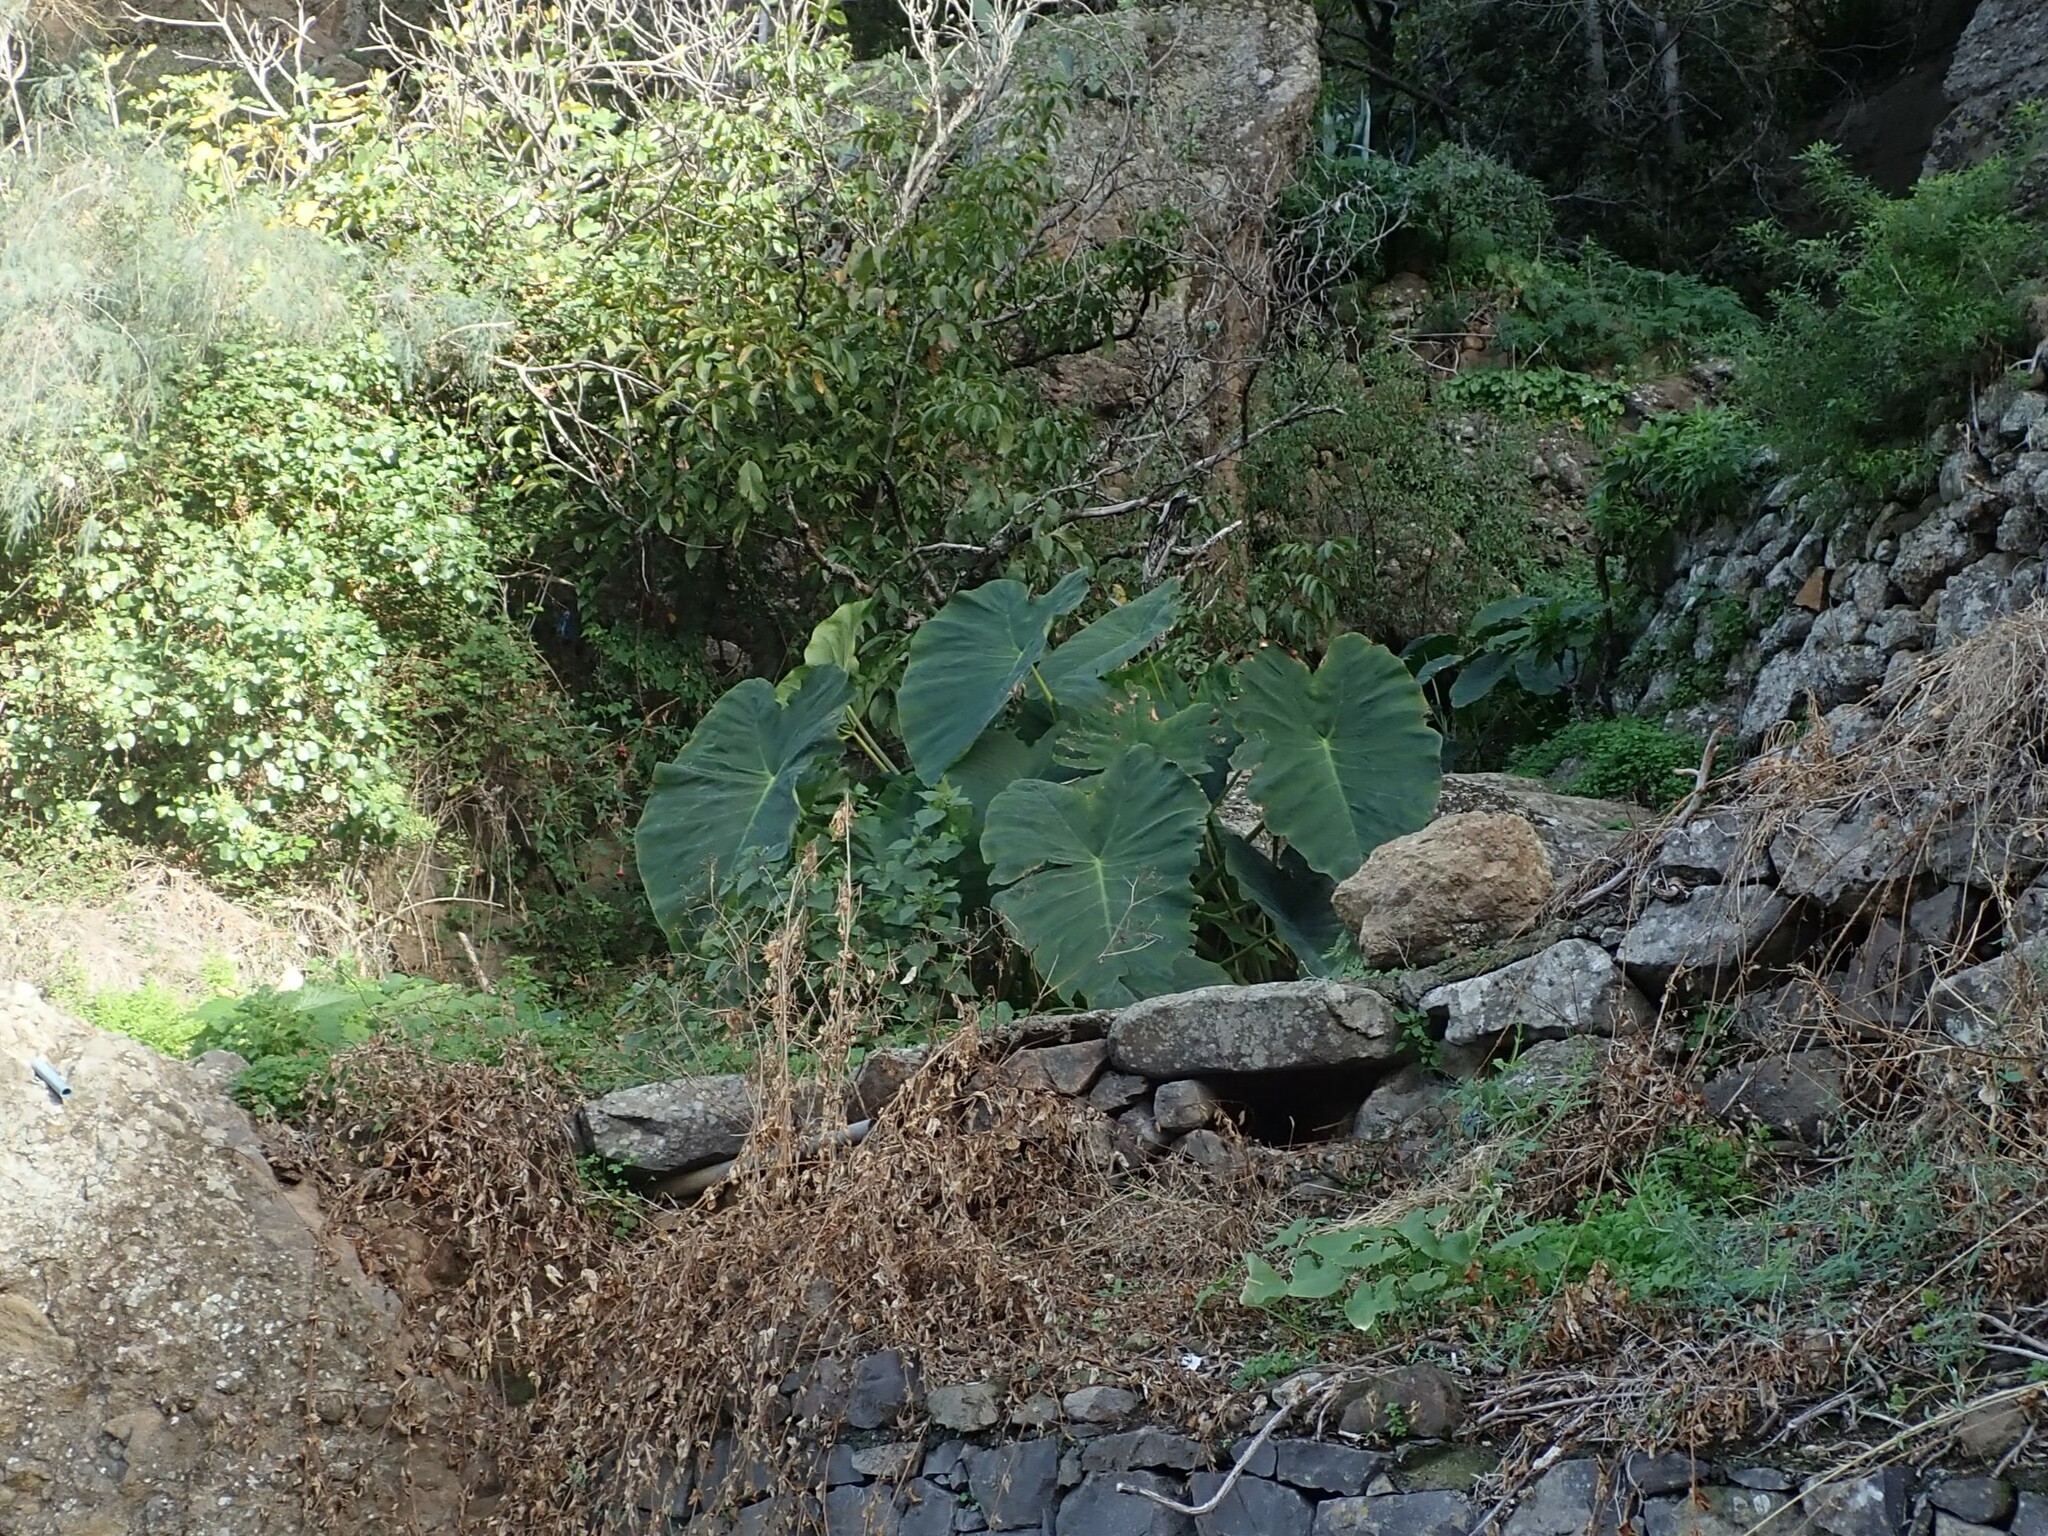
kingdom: Plantae
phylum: Tracheophyta
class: Liliopsida
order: Alismatales
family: Araceae
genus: Colocasia
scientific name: Colocasia esculenta
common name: Taro
